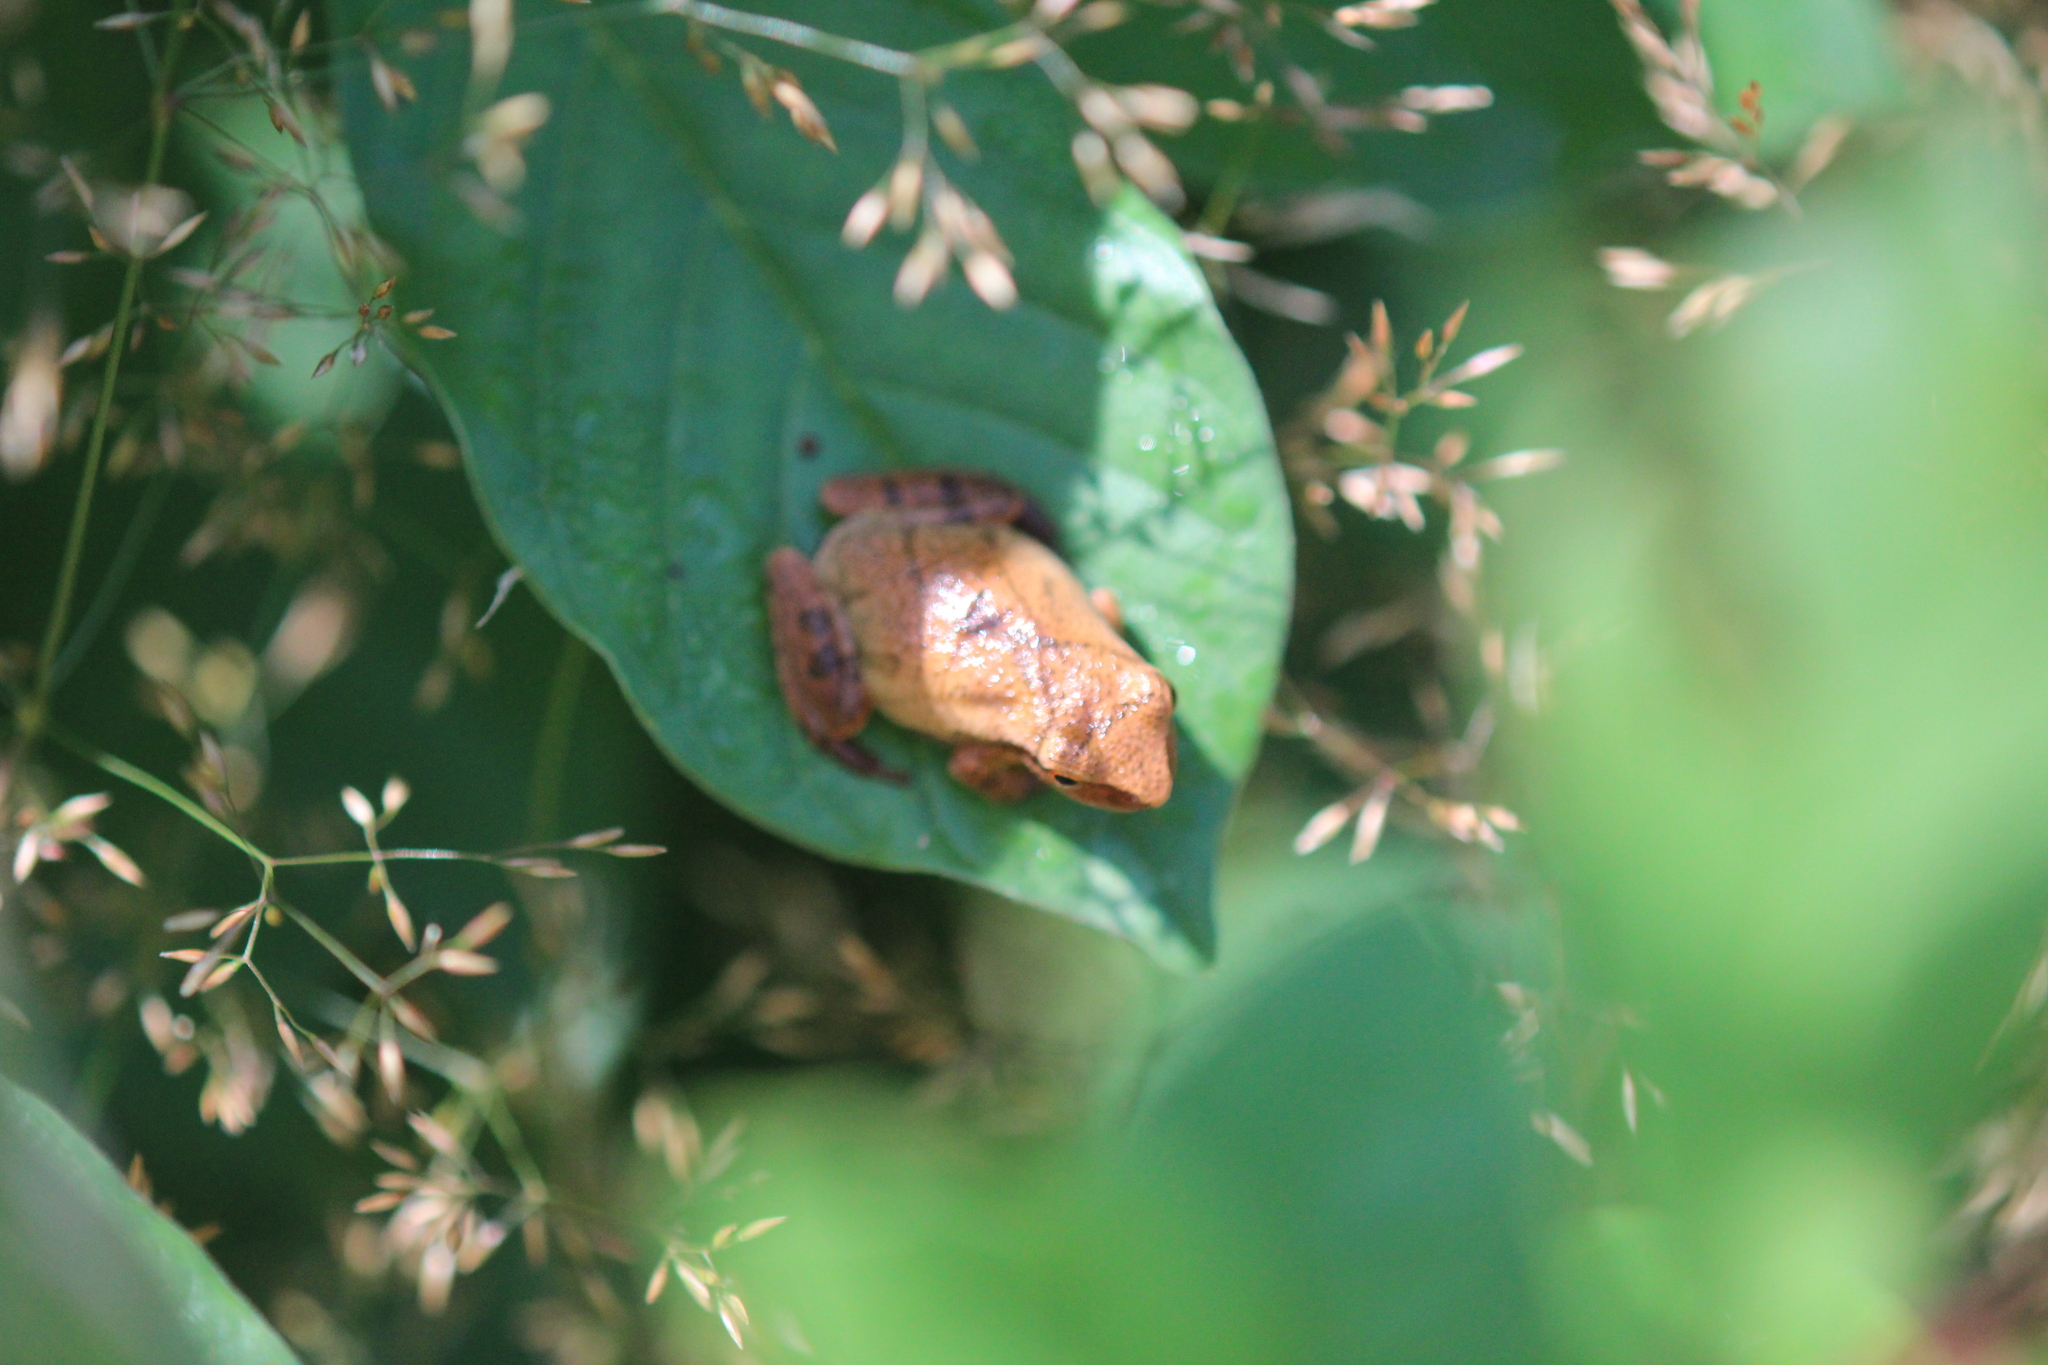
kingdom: Animalia
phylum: Chordata
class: Amphibia
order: Anura
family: Hylidae
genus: Pseudacris
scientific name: Pseudacris crucifer
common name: Spring peeper
